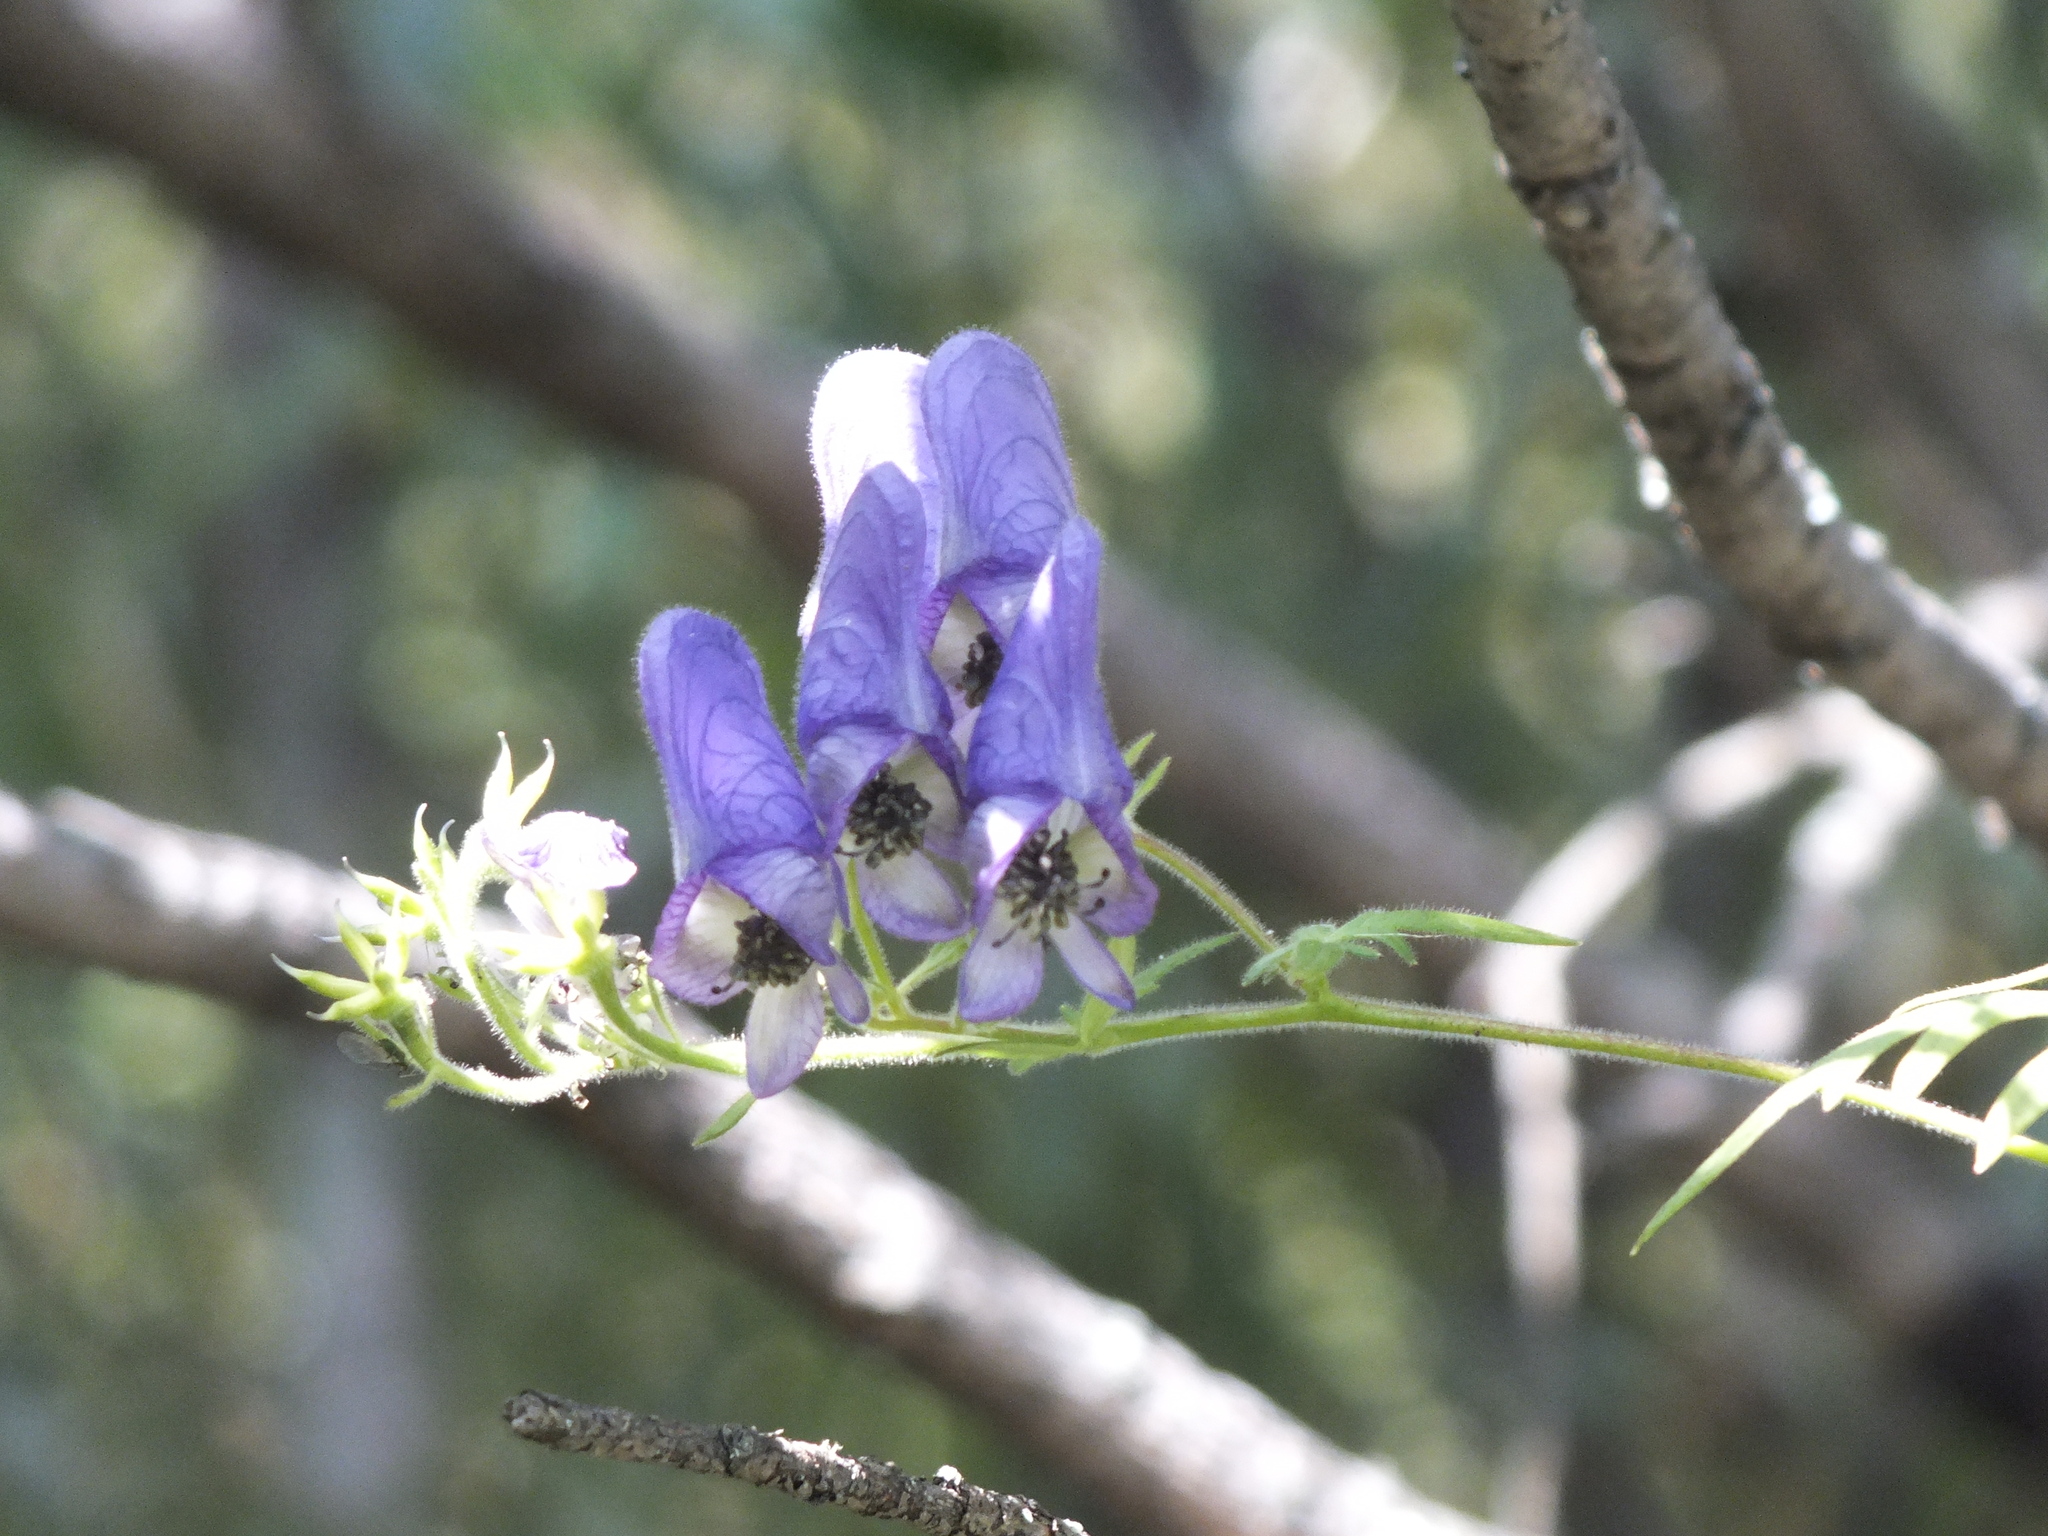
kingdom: Plantae
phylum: Tracheophyta
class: Magnoliopsida
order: Ranunculales
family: Ranunculaceae
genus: Aconitum
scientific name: Aconitum volubile
